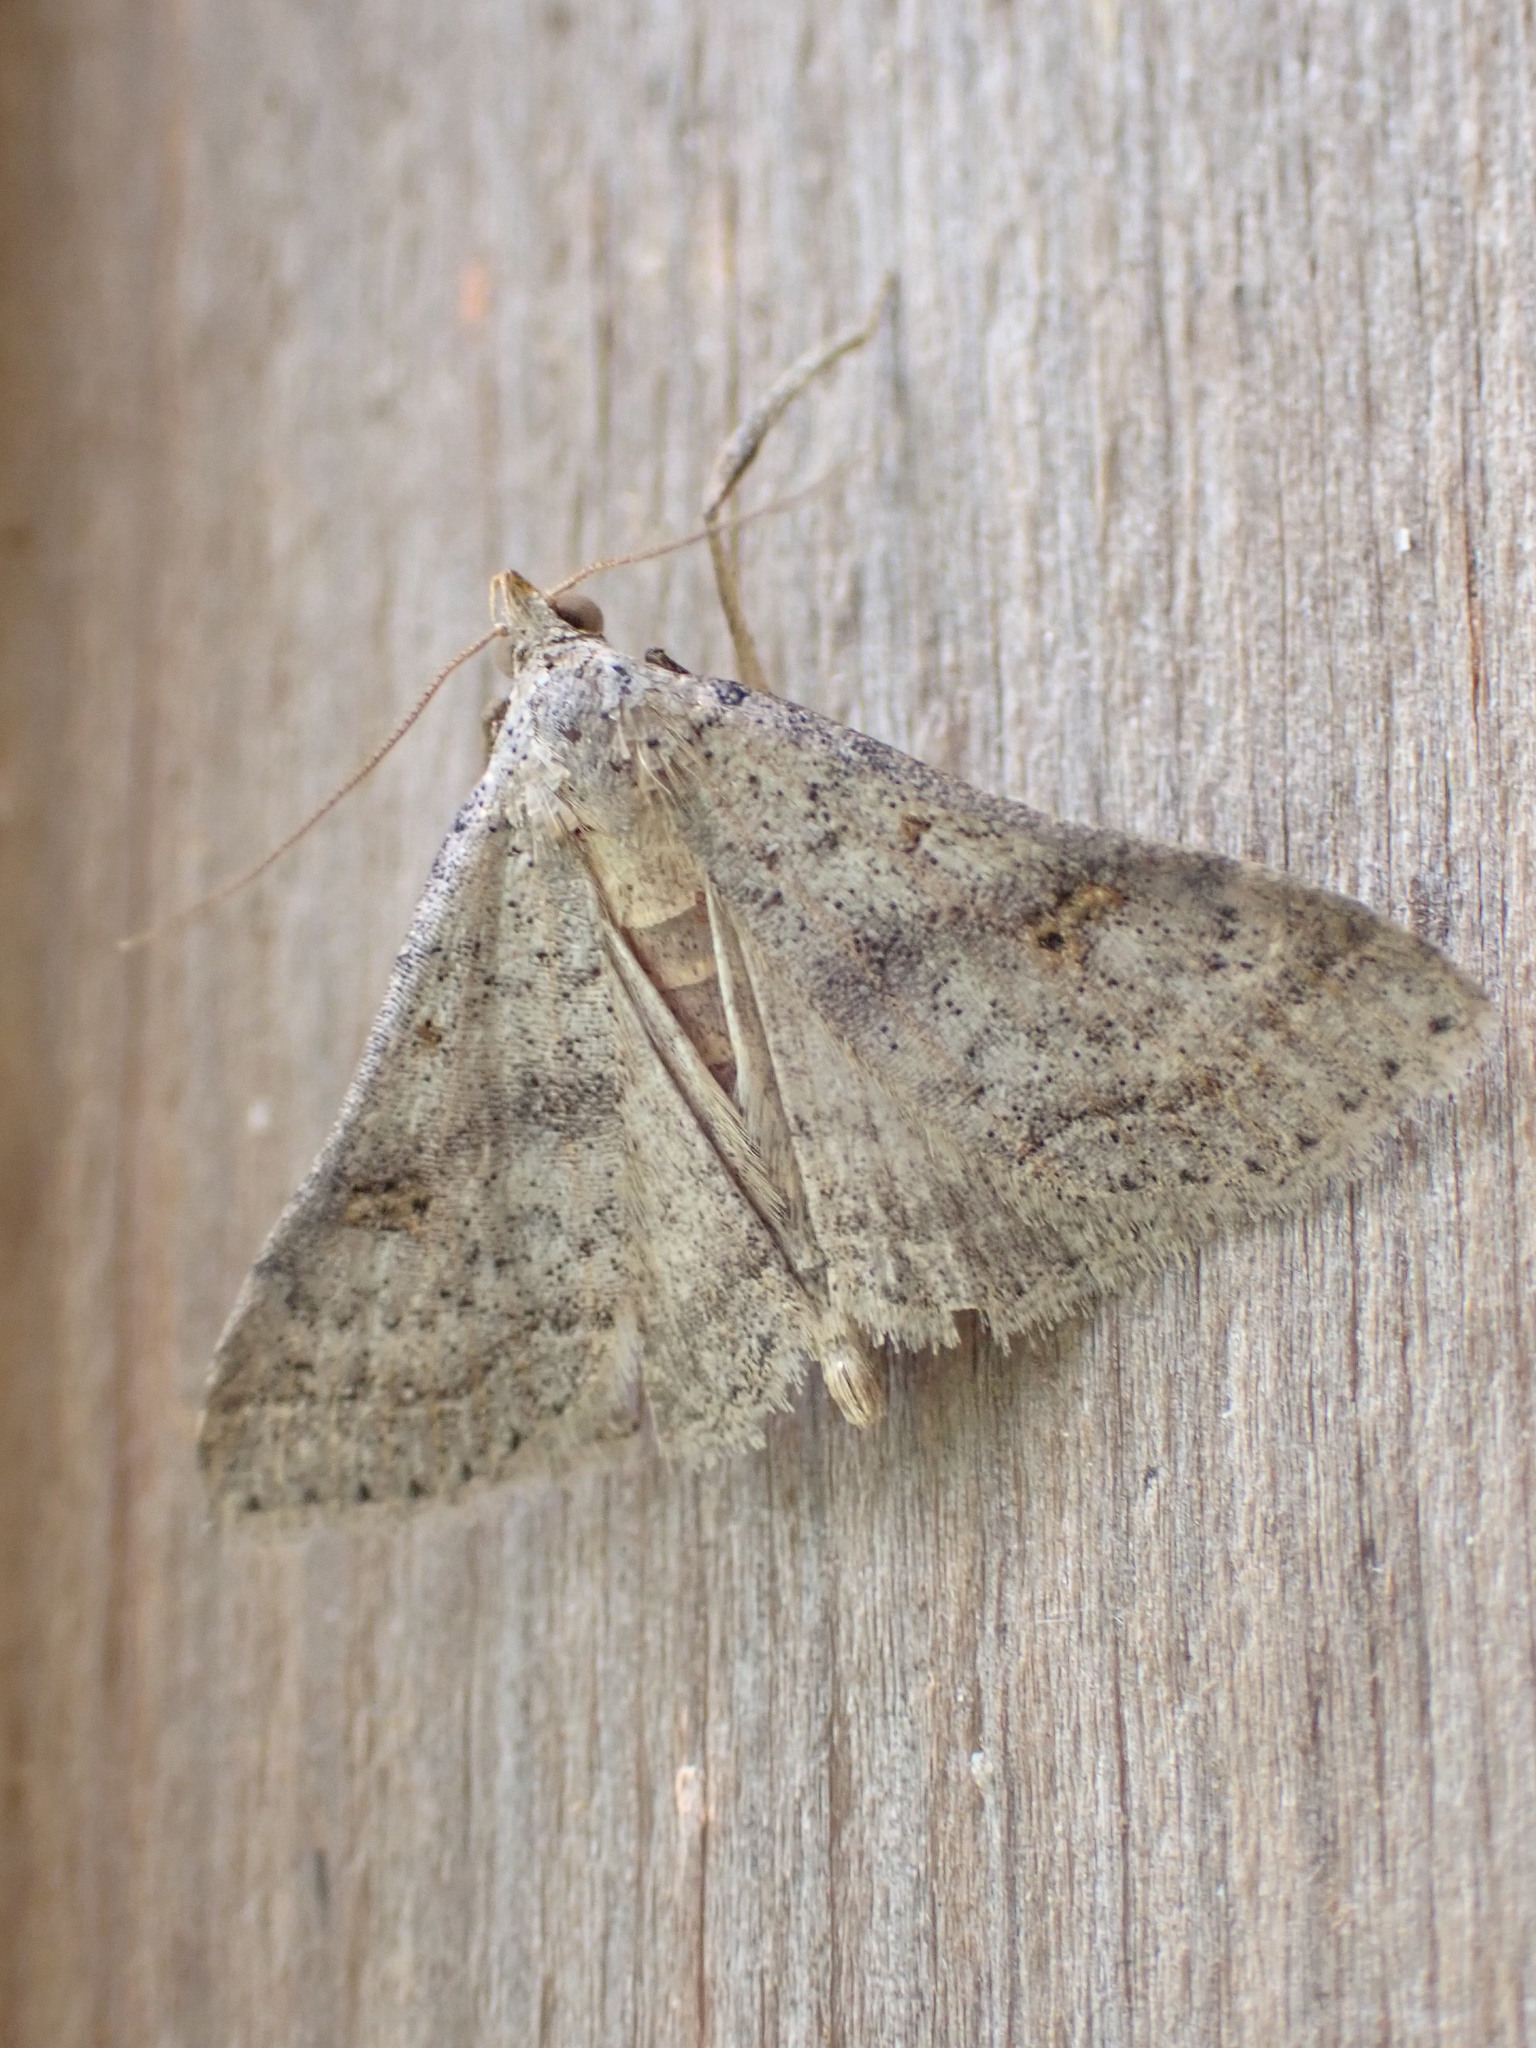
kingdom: Animalia
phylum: Arthropoda
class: Insecta
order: Lepidoptera
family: Erebidae
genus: Bleptina
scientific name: Bleptina caradrinalis
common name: Bent-winged owlet
